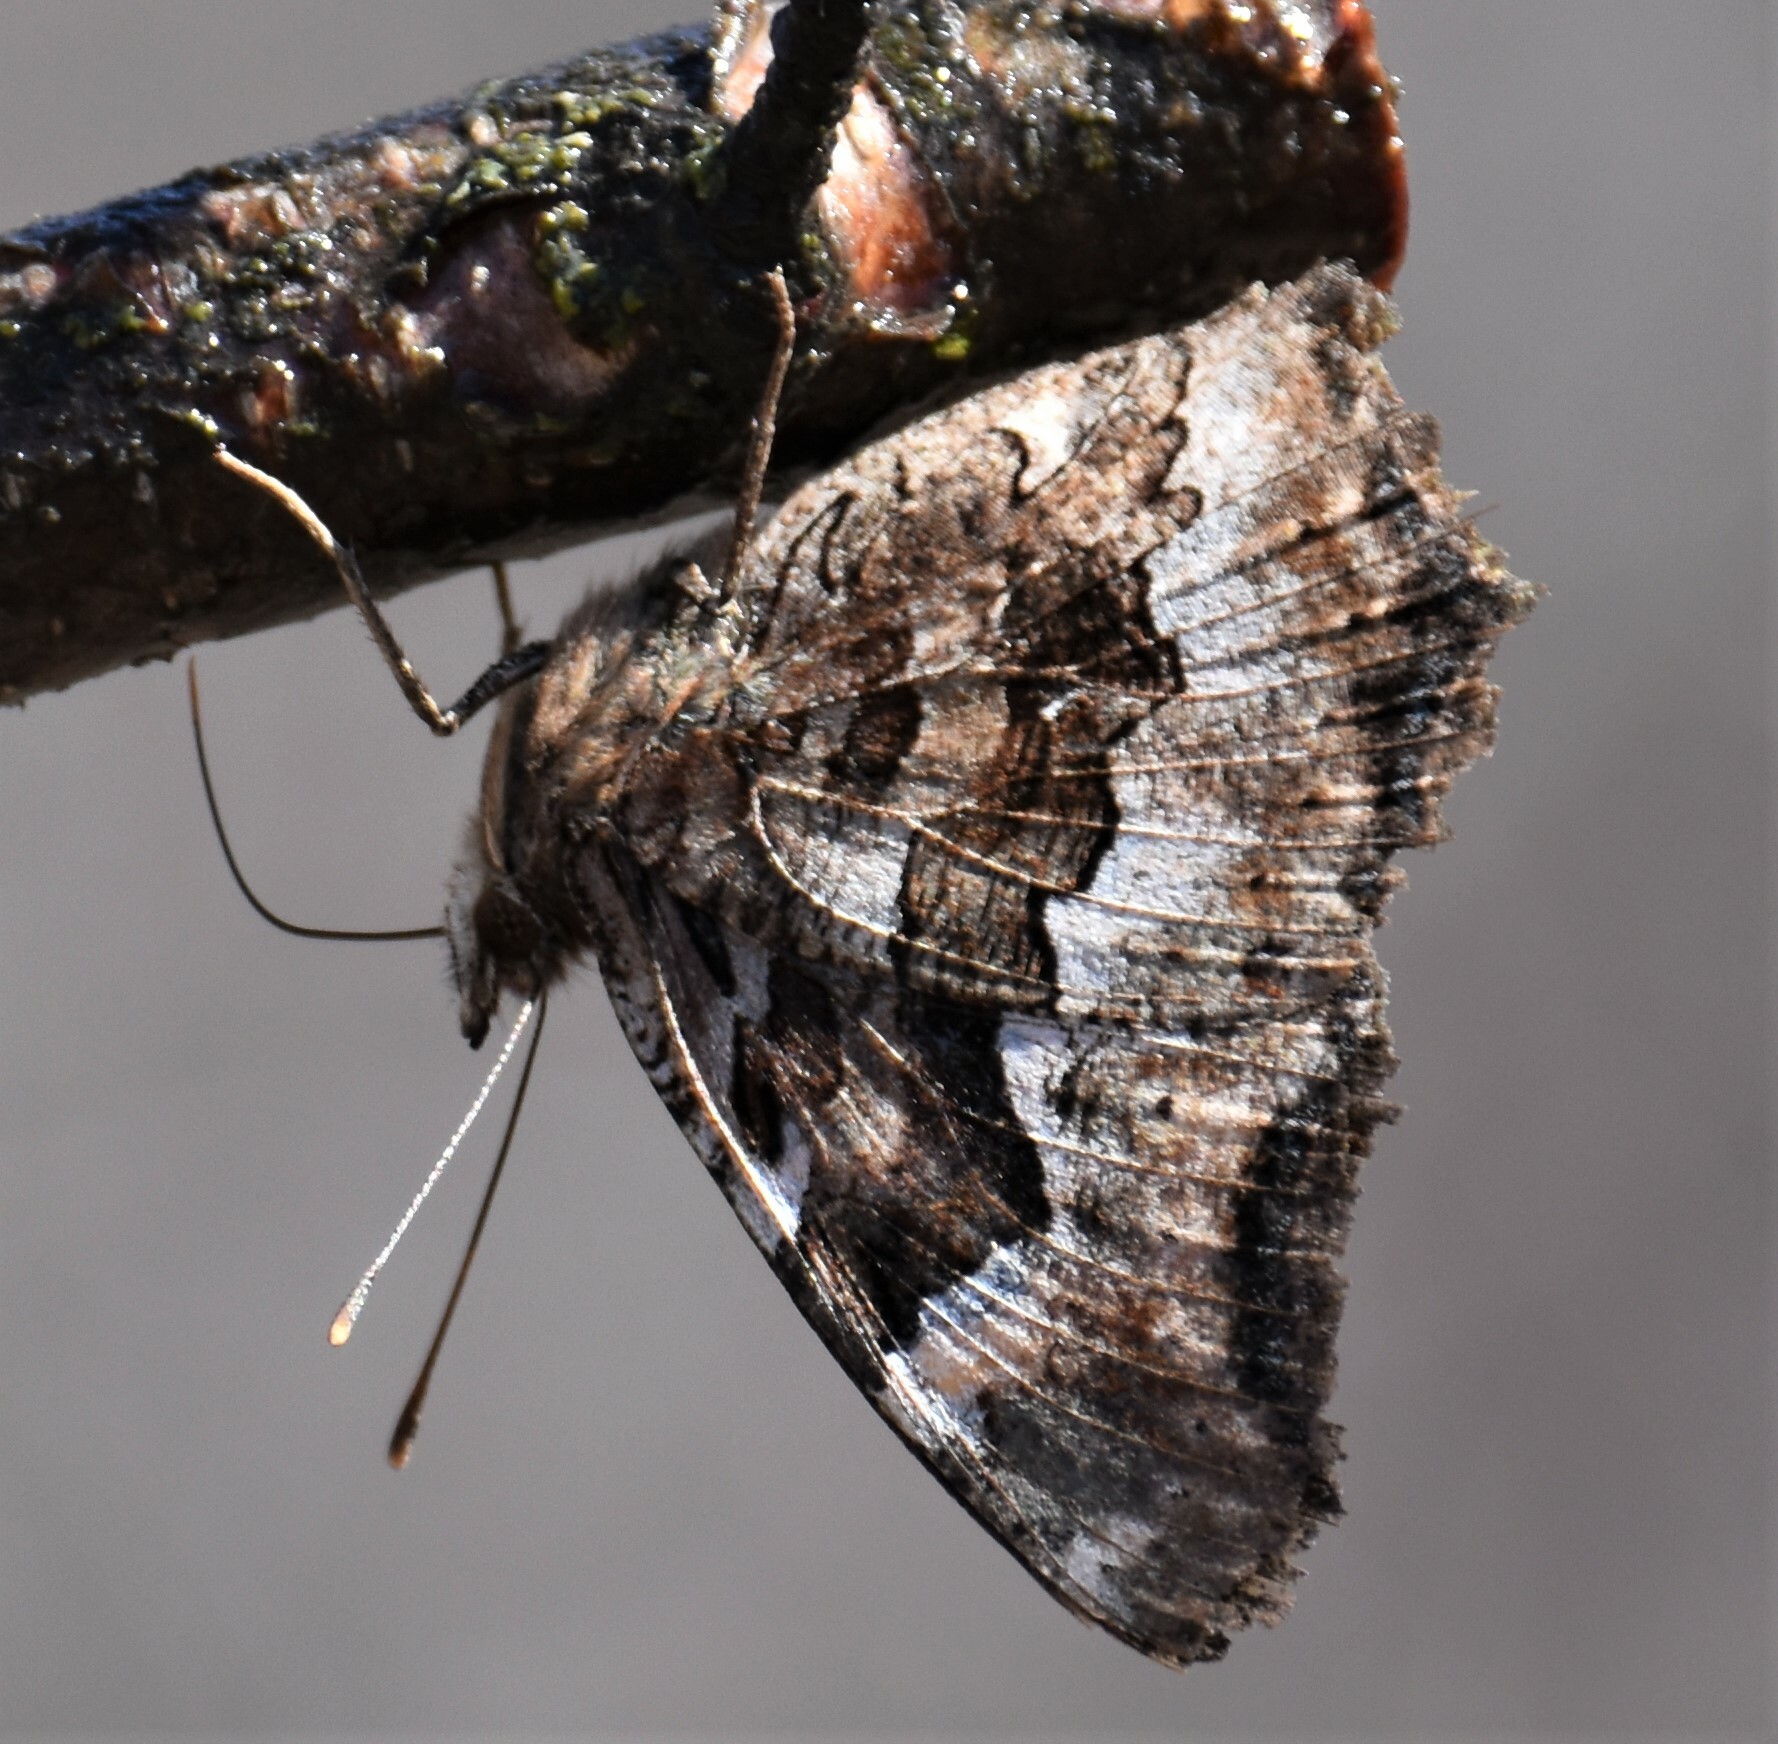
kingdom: Animalia
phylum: Arthropoda
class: Insecta
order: Lepidoptera
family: Nymphalidae
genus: Polygonia
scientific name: Polygonia vaualbum
